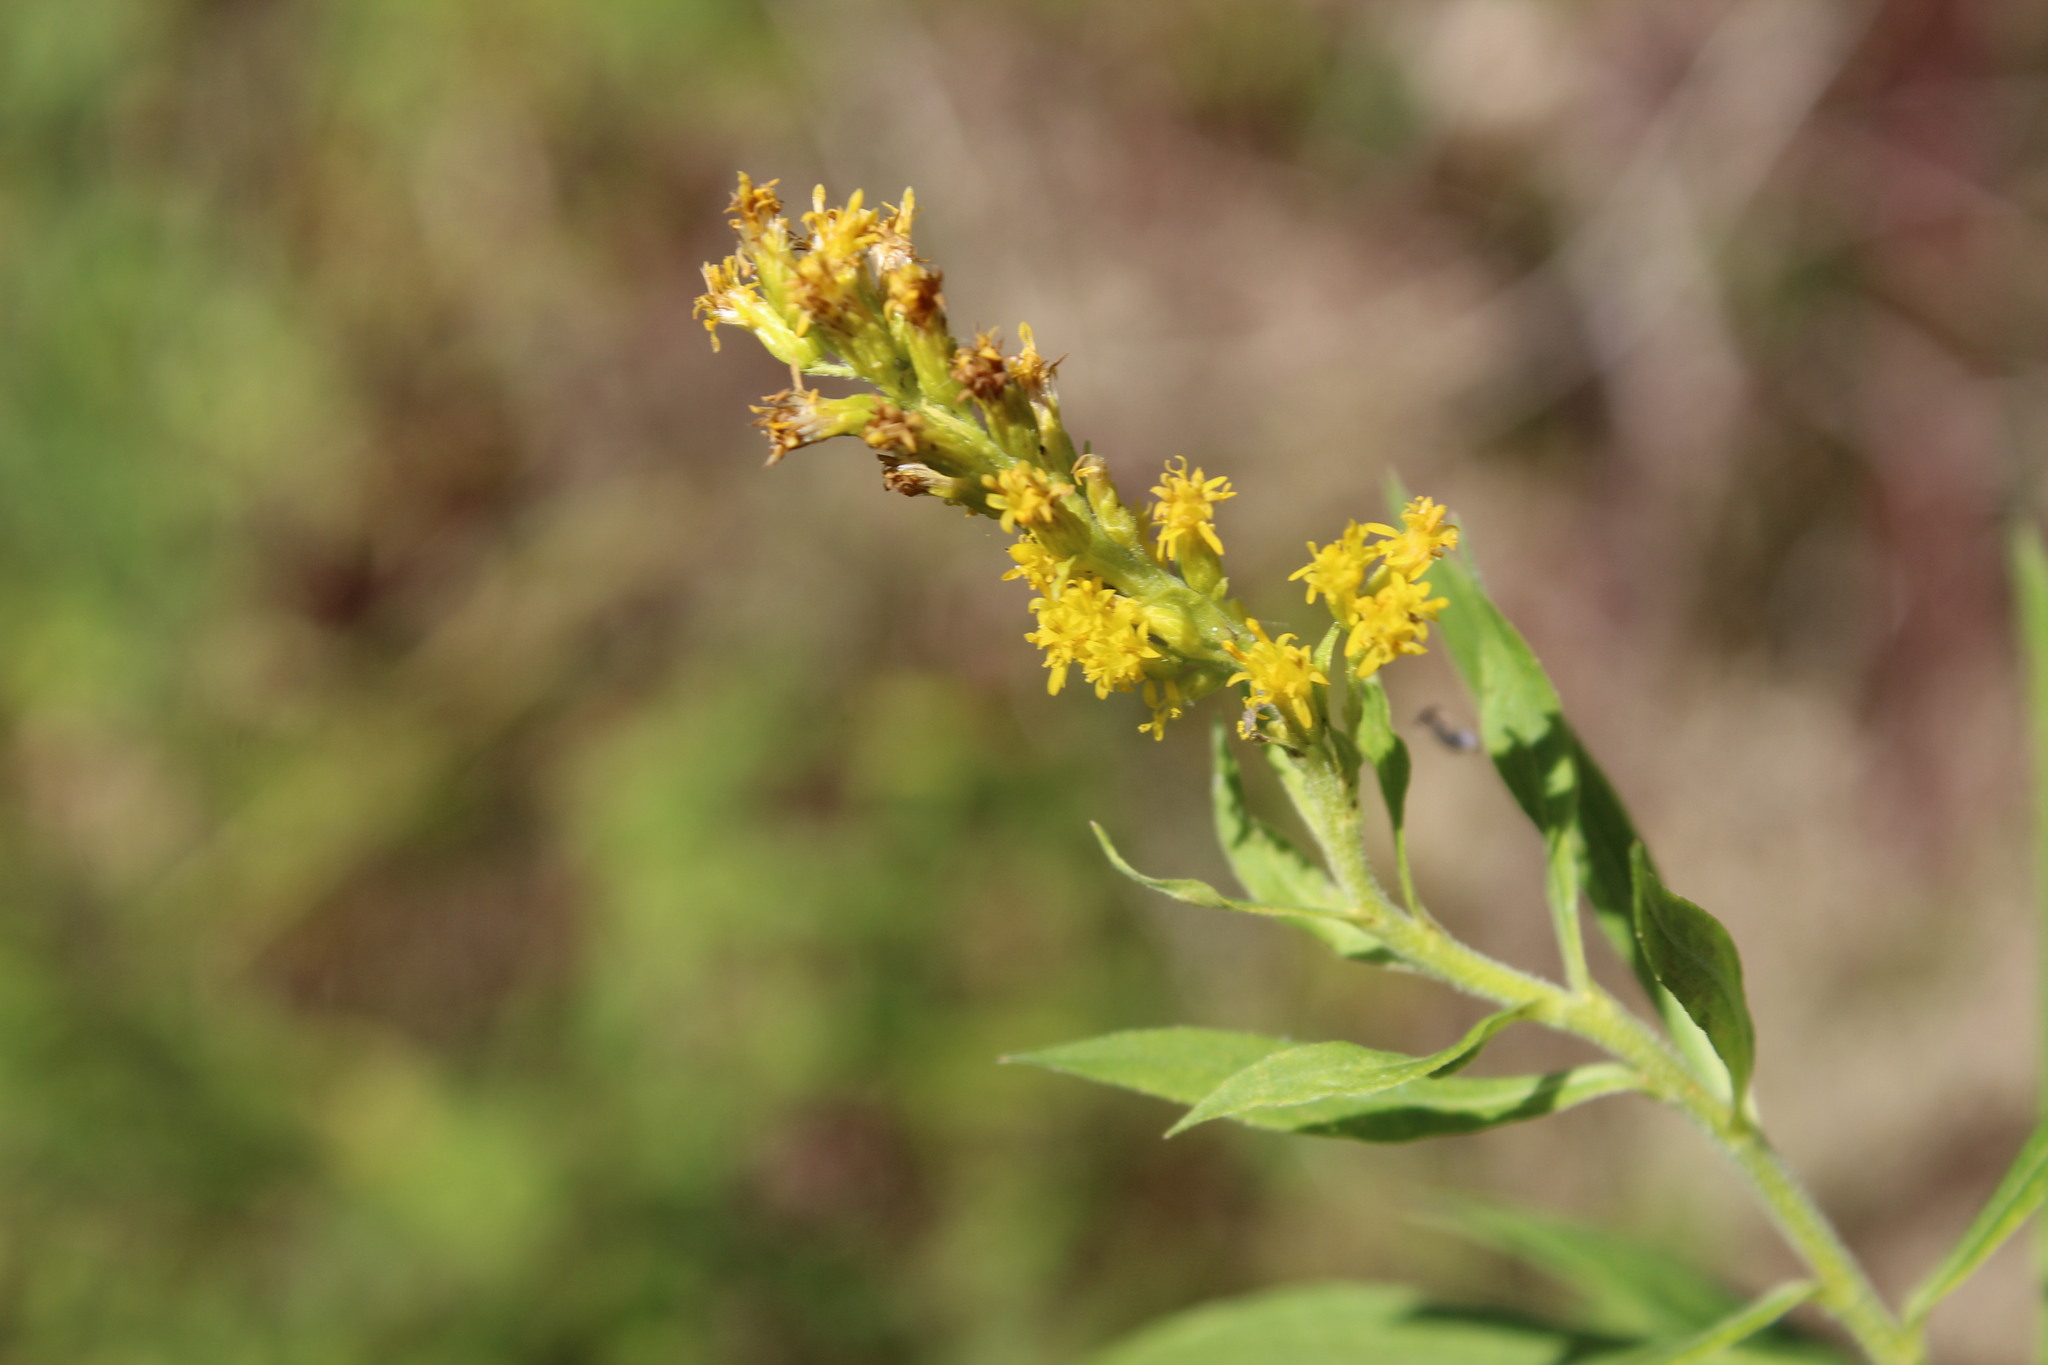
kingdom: Plantae
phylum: Tracheophyta
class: Magnoliopsida
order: Asterales
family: Asteraceae
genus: Solidago
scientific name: Solidago
